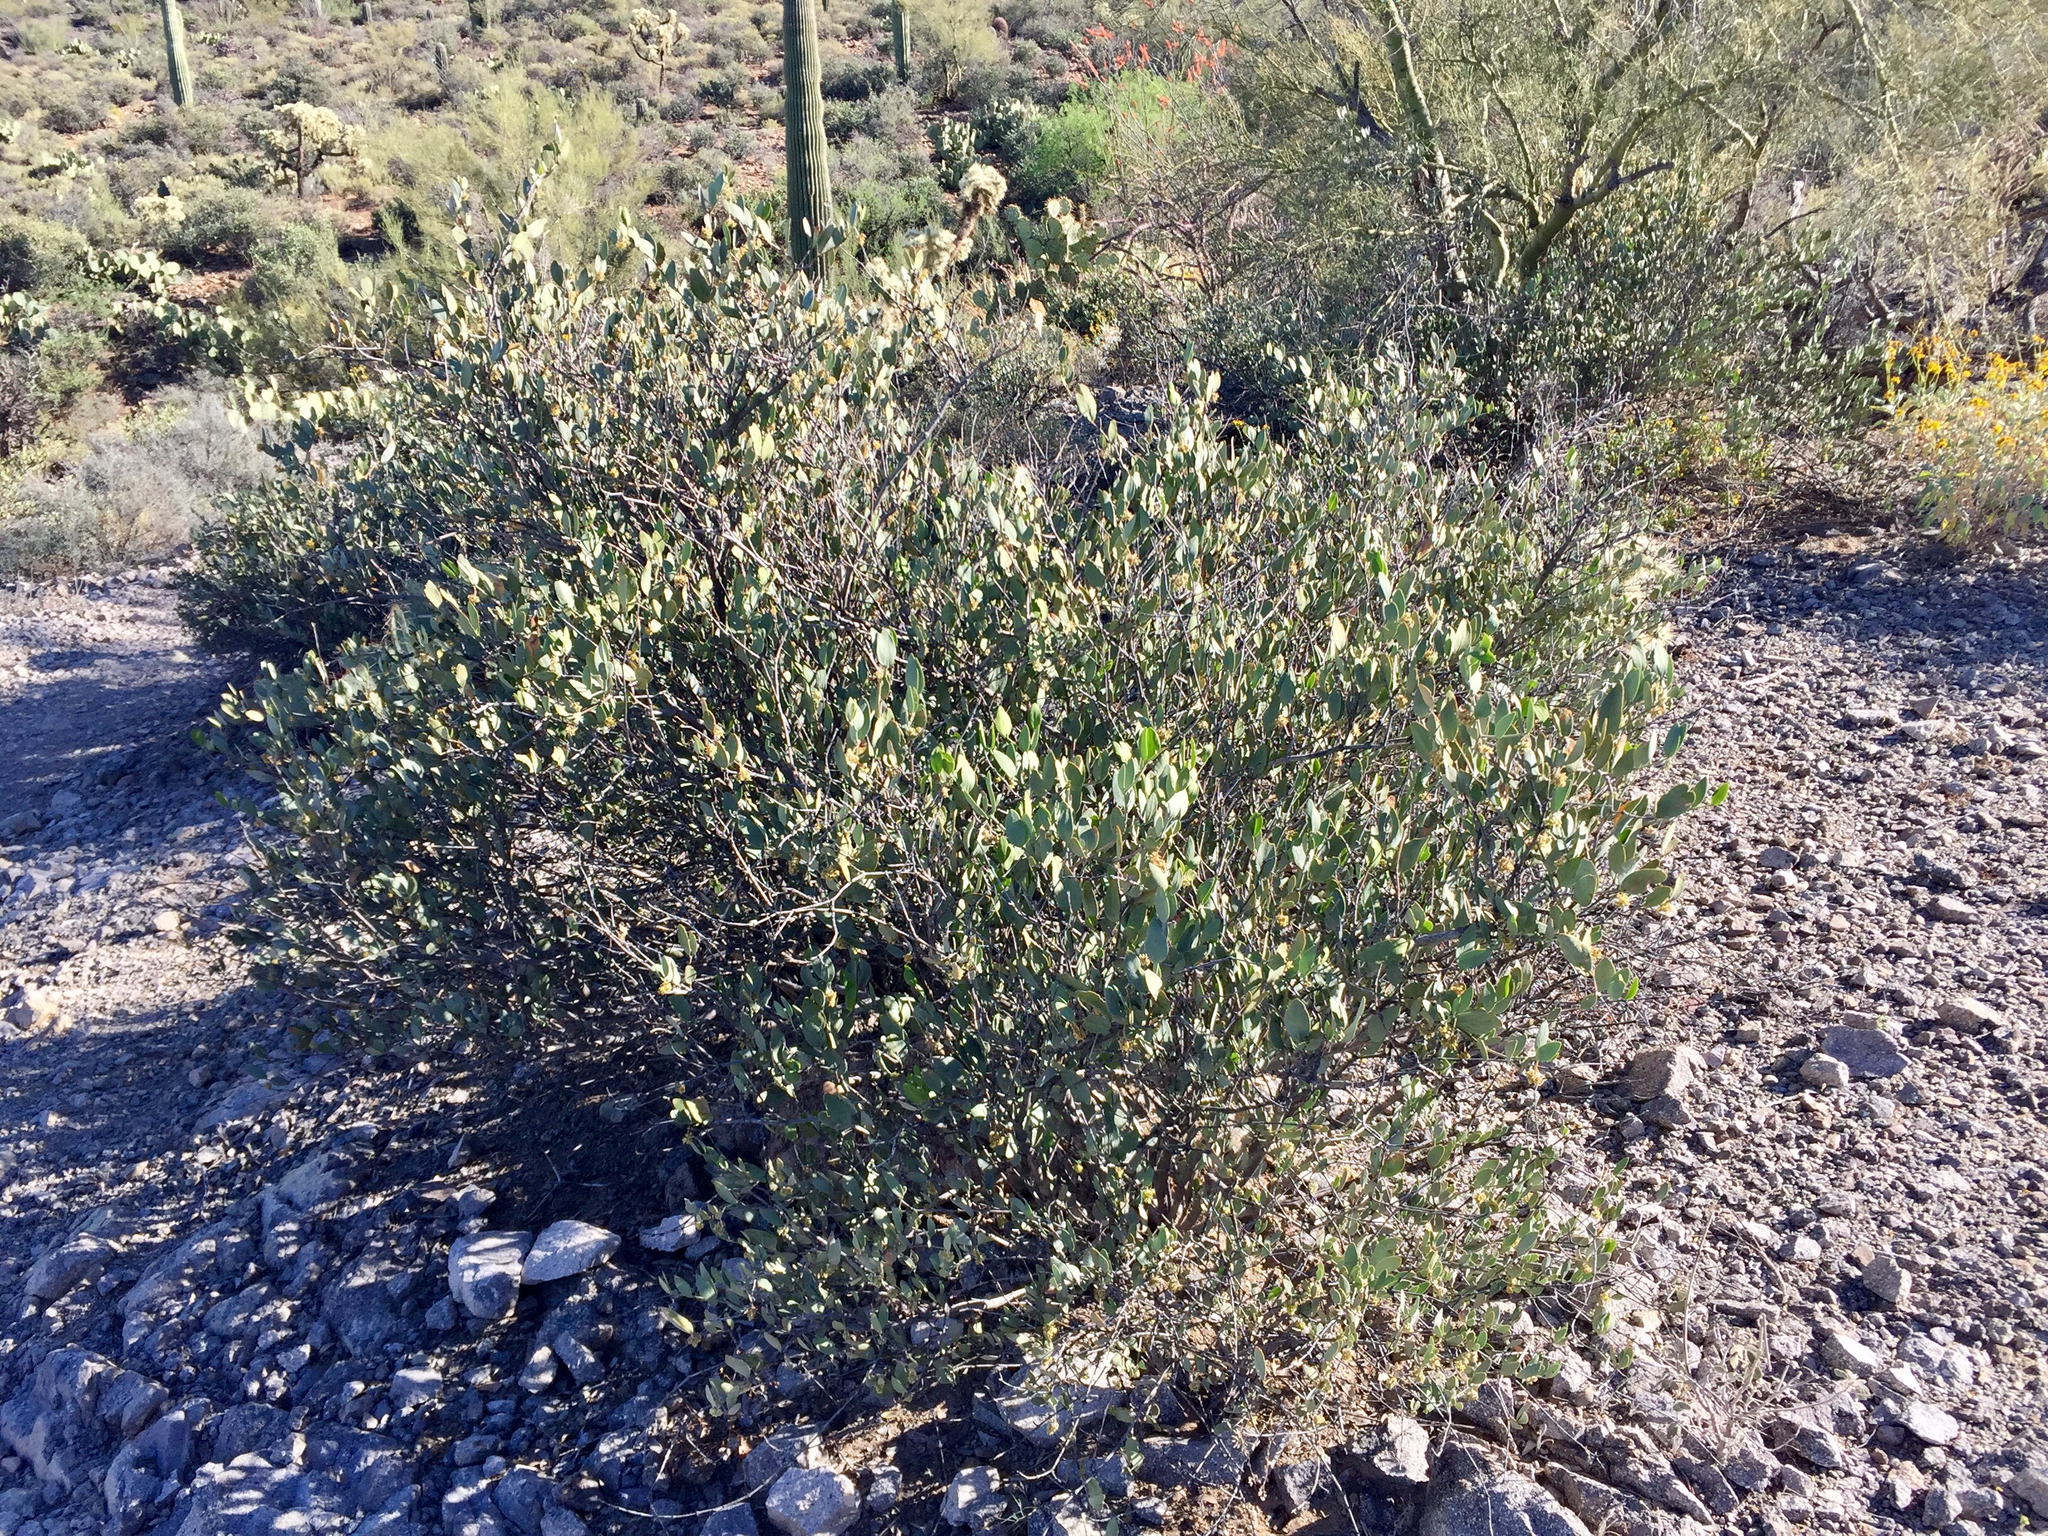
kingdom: Plantae
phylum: Tracheophyta
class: Magnoliopsida
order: Caryophyllales
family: Simmondsiaceae
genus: Simmondsia
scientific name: Simmondsia chinensis
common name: Jojoba
